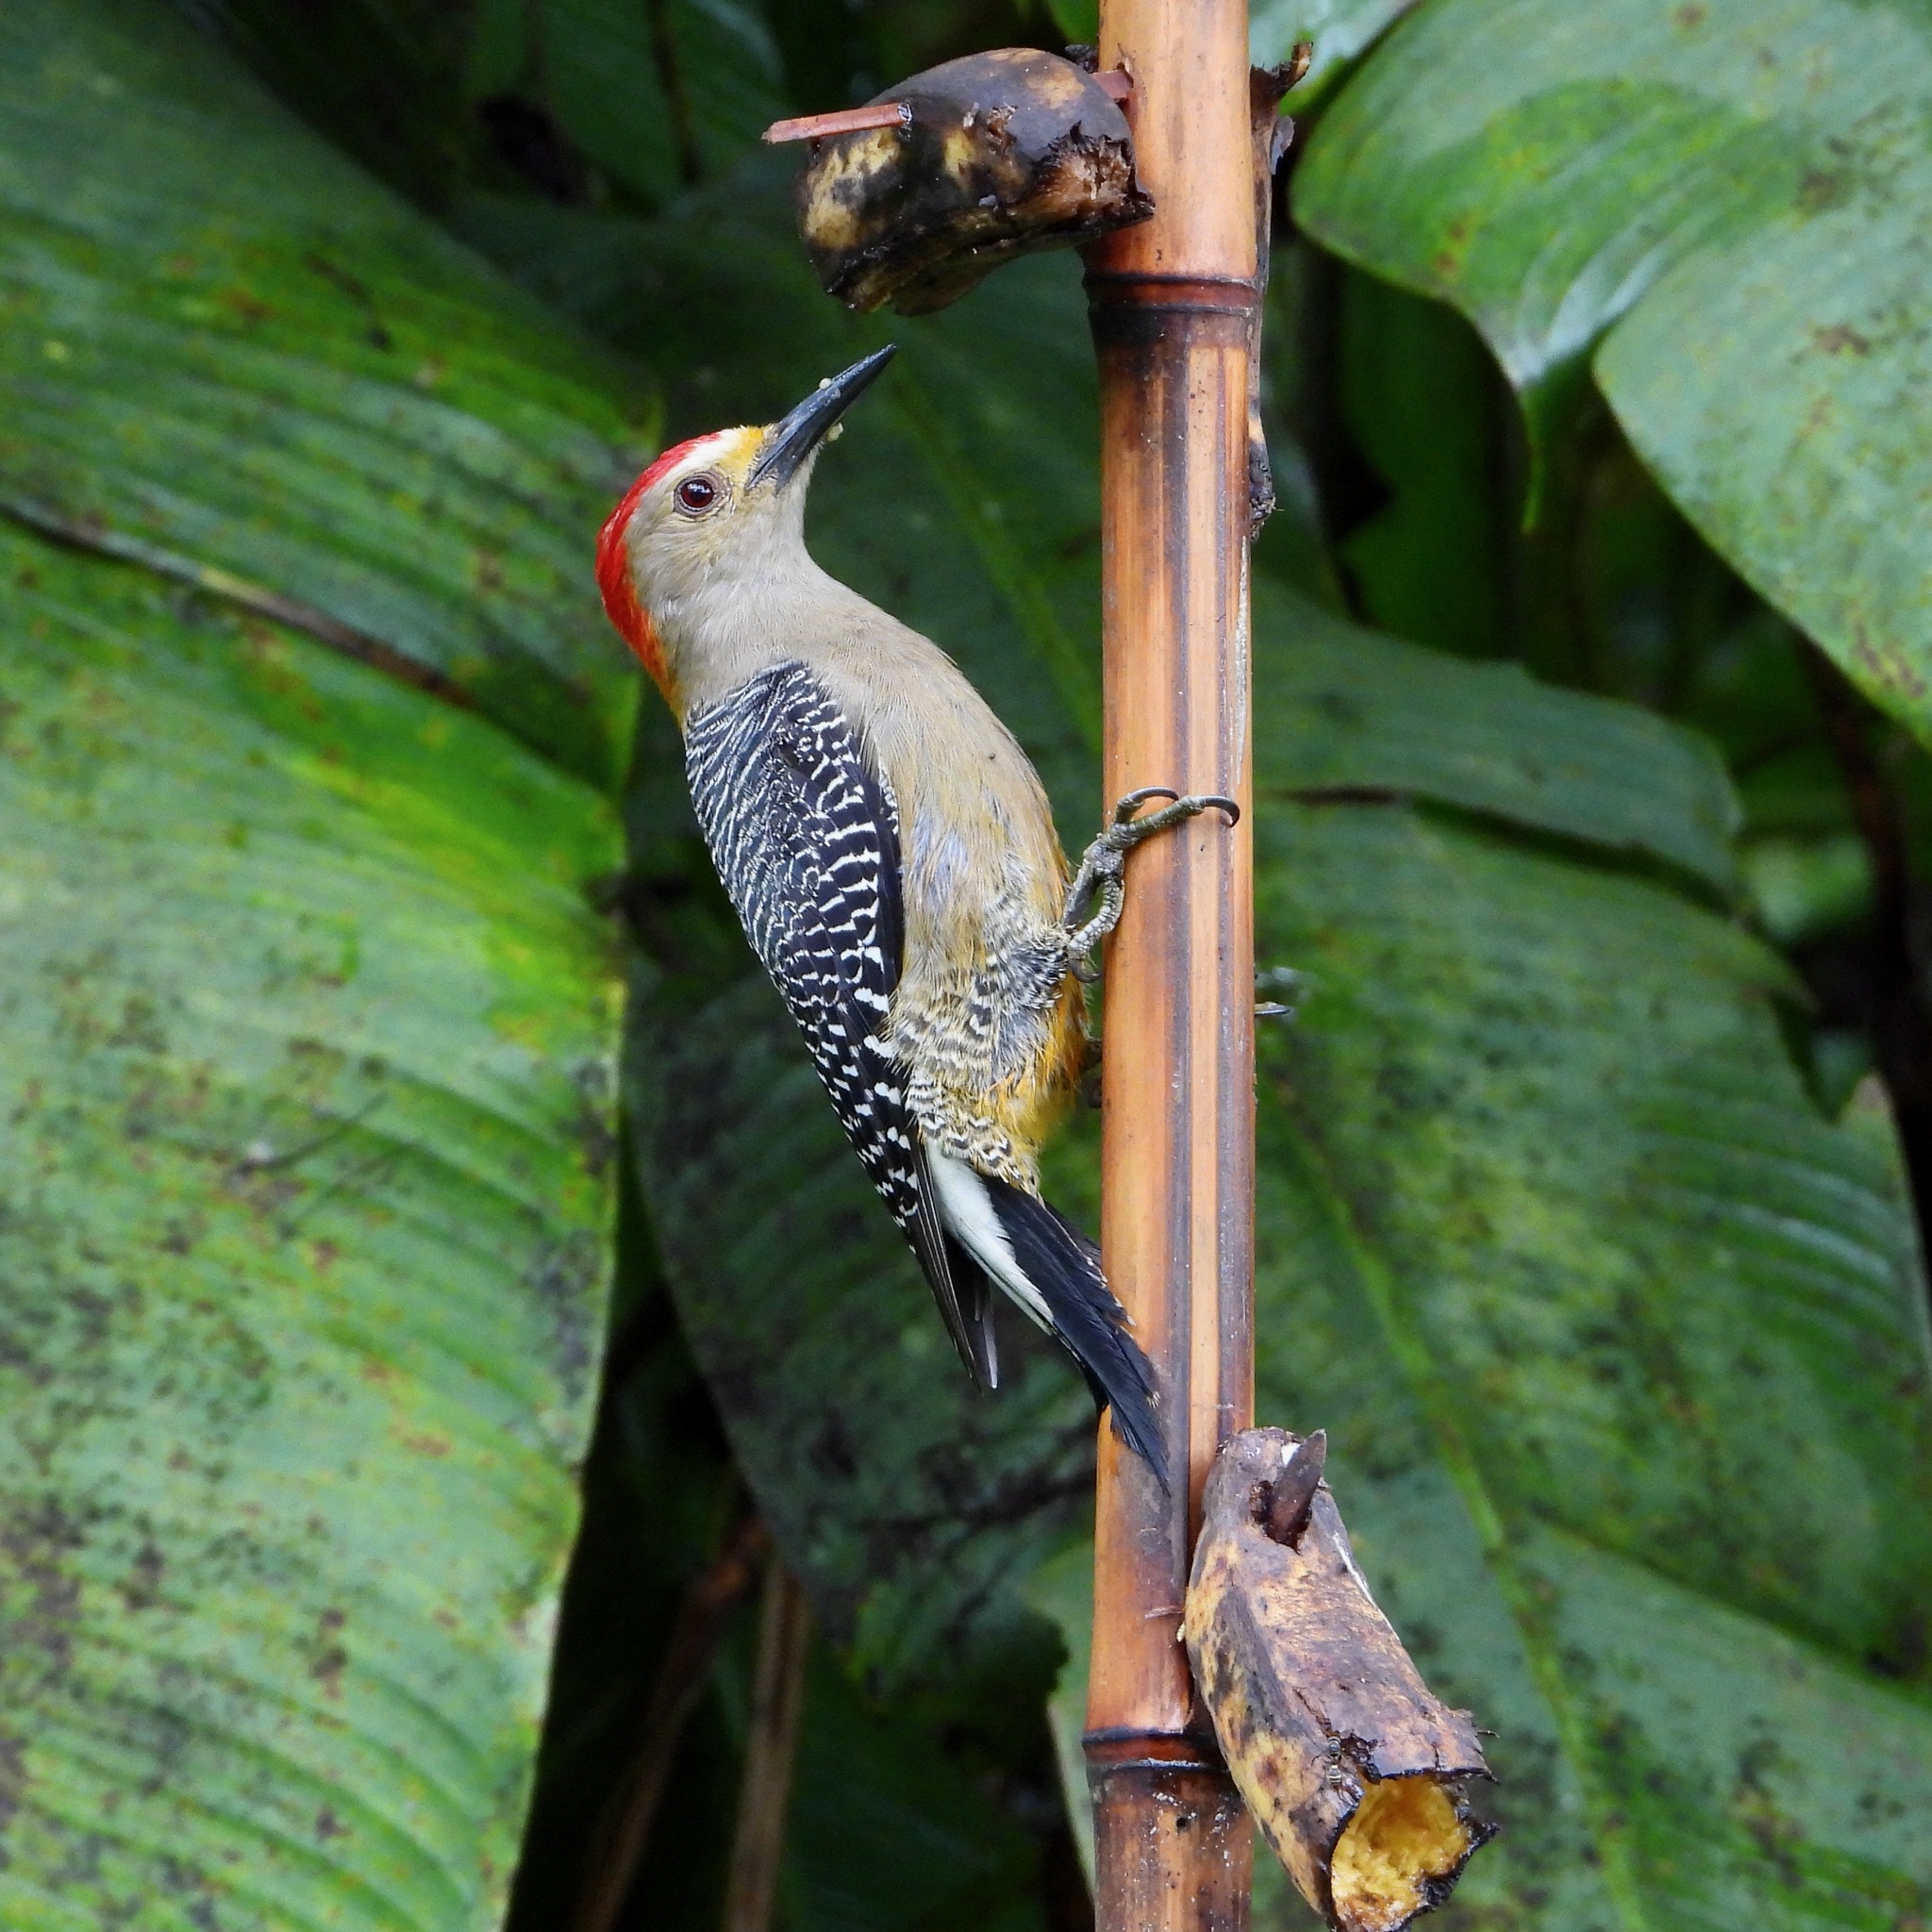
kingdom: Animalia
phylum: Chordata
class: Aves
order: Piciformes
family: Picidae
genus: Melanerpes
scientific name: Melanerpes aurifrons
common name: Golden-fronted woodpecker
